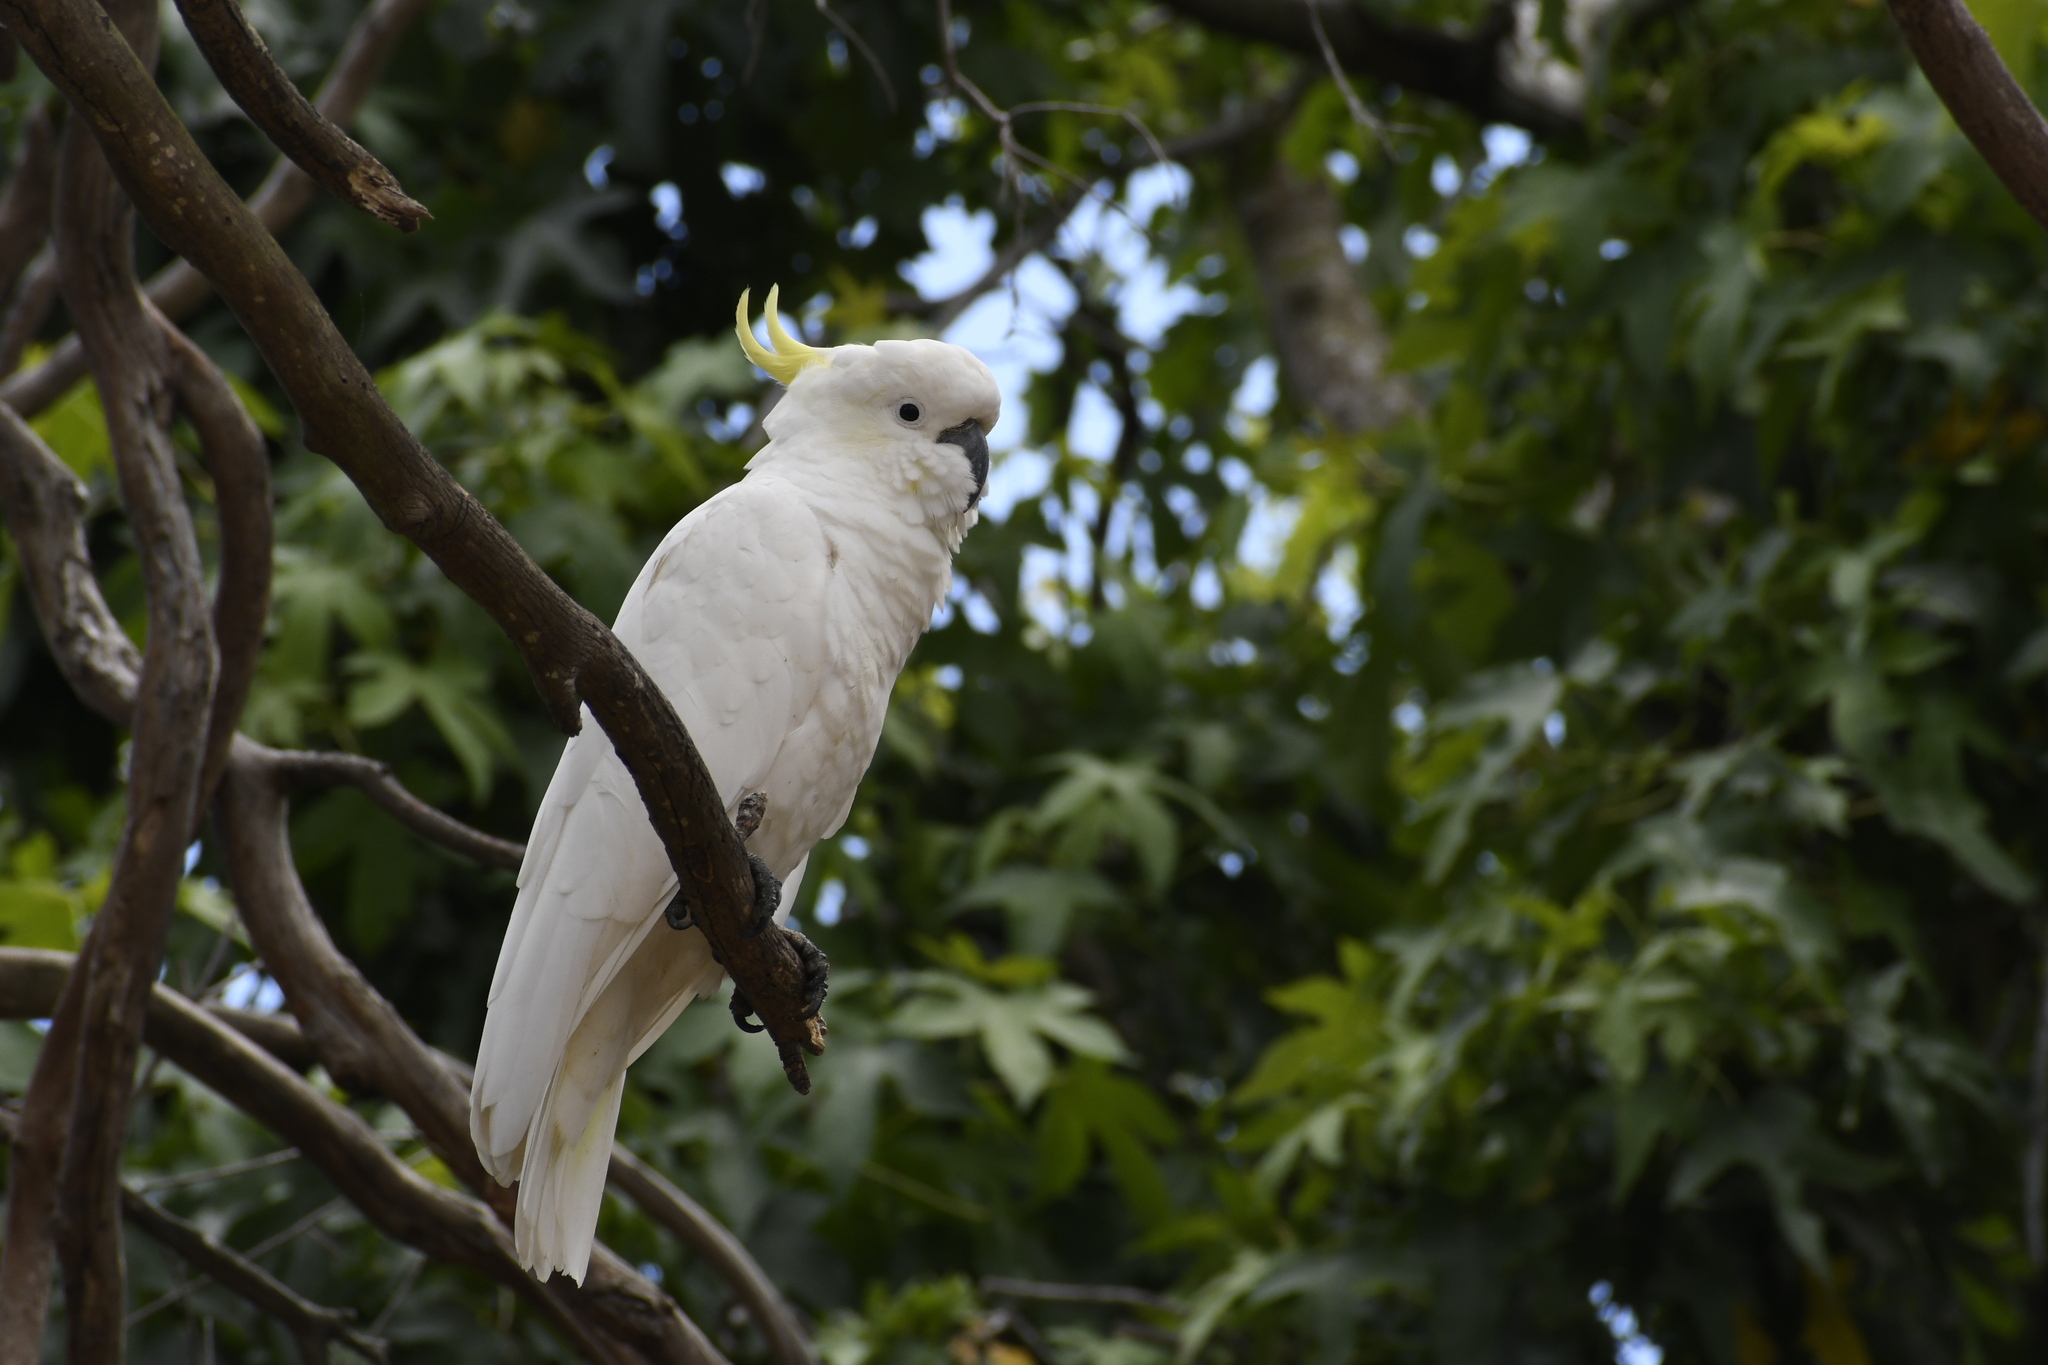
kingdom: Animalia
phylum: Chordata
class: Aves
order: Psittaciformes
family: Psittacidae
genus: Cacatua
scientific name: Cacatua galerita
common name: Sulphur-crested cockatoo
